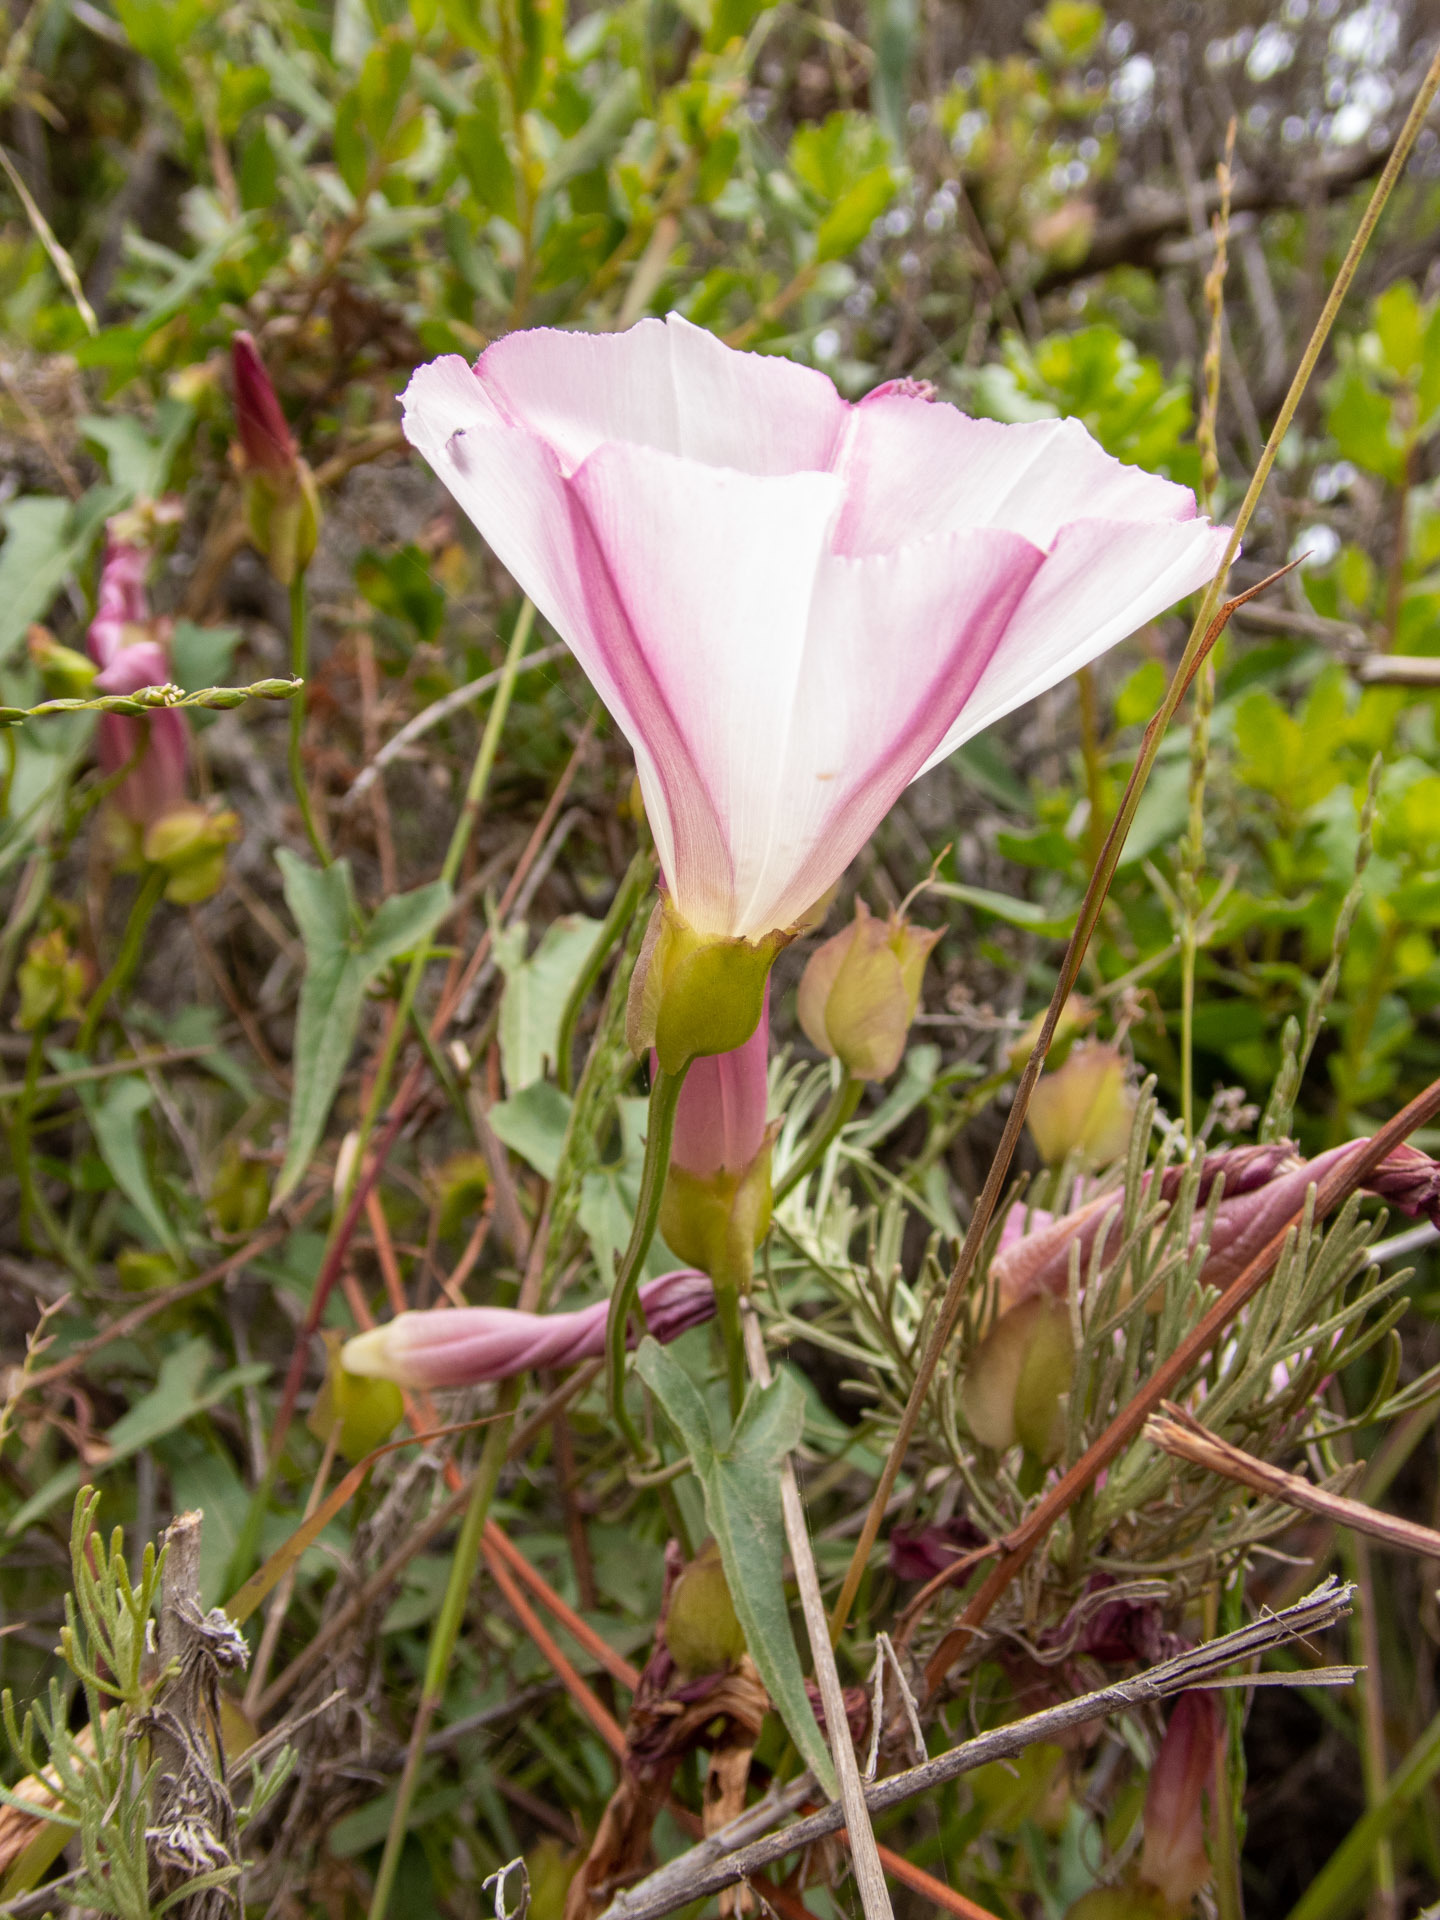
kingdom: Plantae
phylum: Tracheophyta
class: Magnoliopsida
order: Solanales
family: Convolvulaceae
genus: Calystegia
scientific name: Calystegia macrostegia
